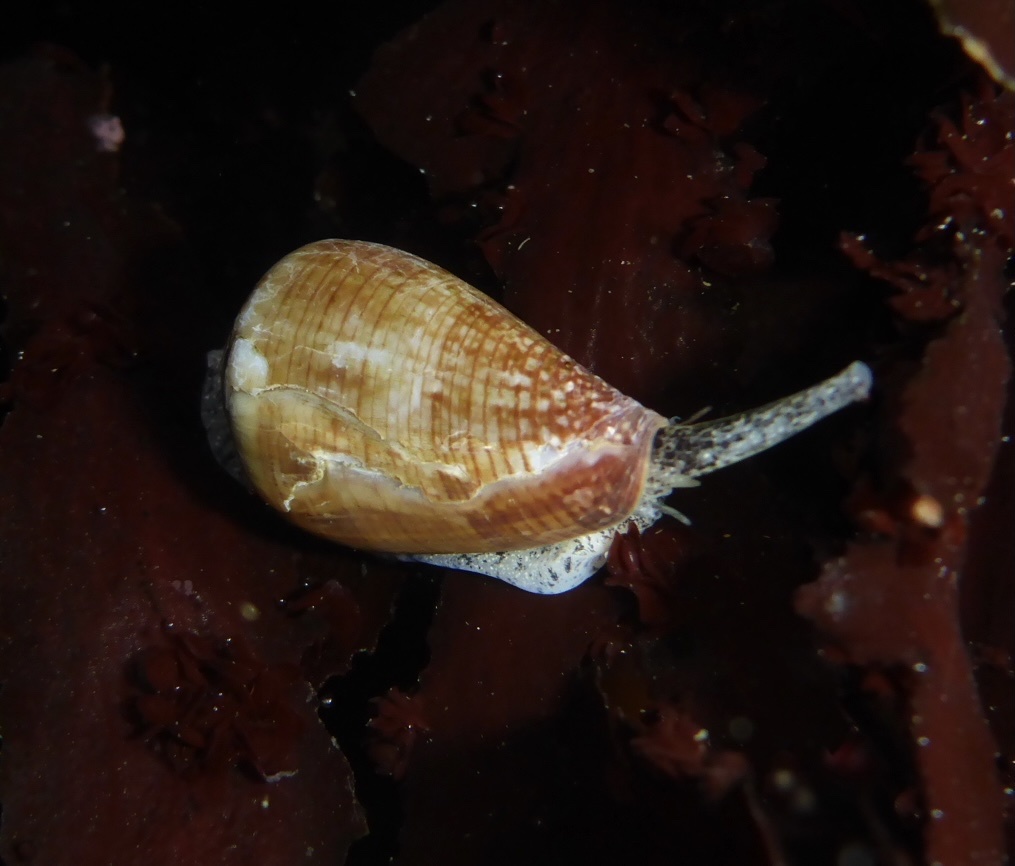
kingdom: Animalia
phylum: Mollusca
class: Gastropoda
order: Neogastropoda
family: Conidae
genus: Californiconus
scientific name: Californiconus californicus
